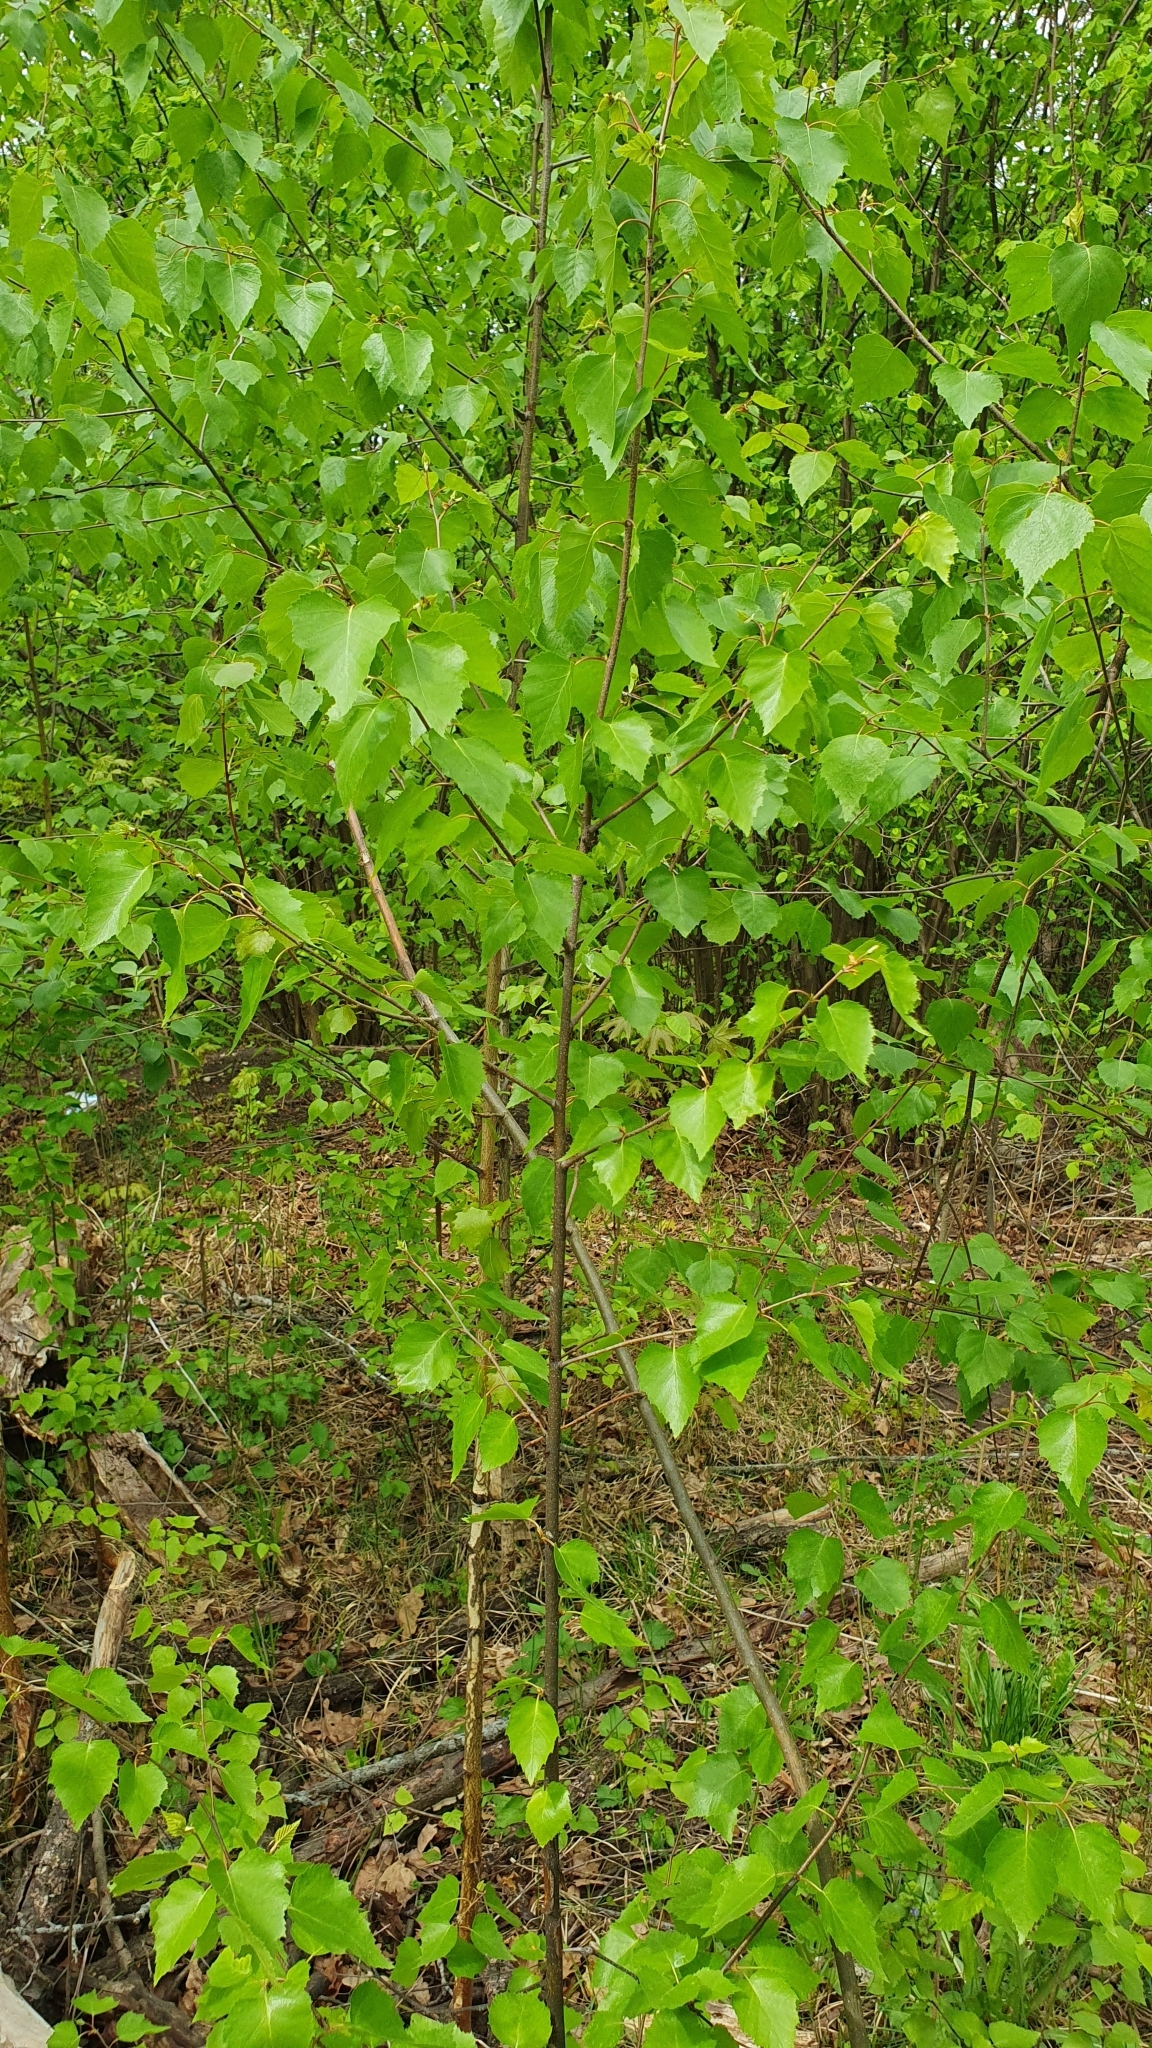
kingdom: Plantae
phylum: Tracheophyta
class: Magnoliopsida
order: Fagales
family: Betulaceae
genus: Betula
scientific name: Betula pendula
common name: Silver birch
